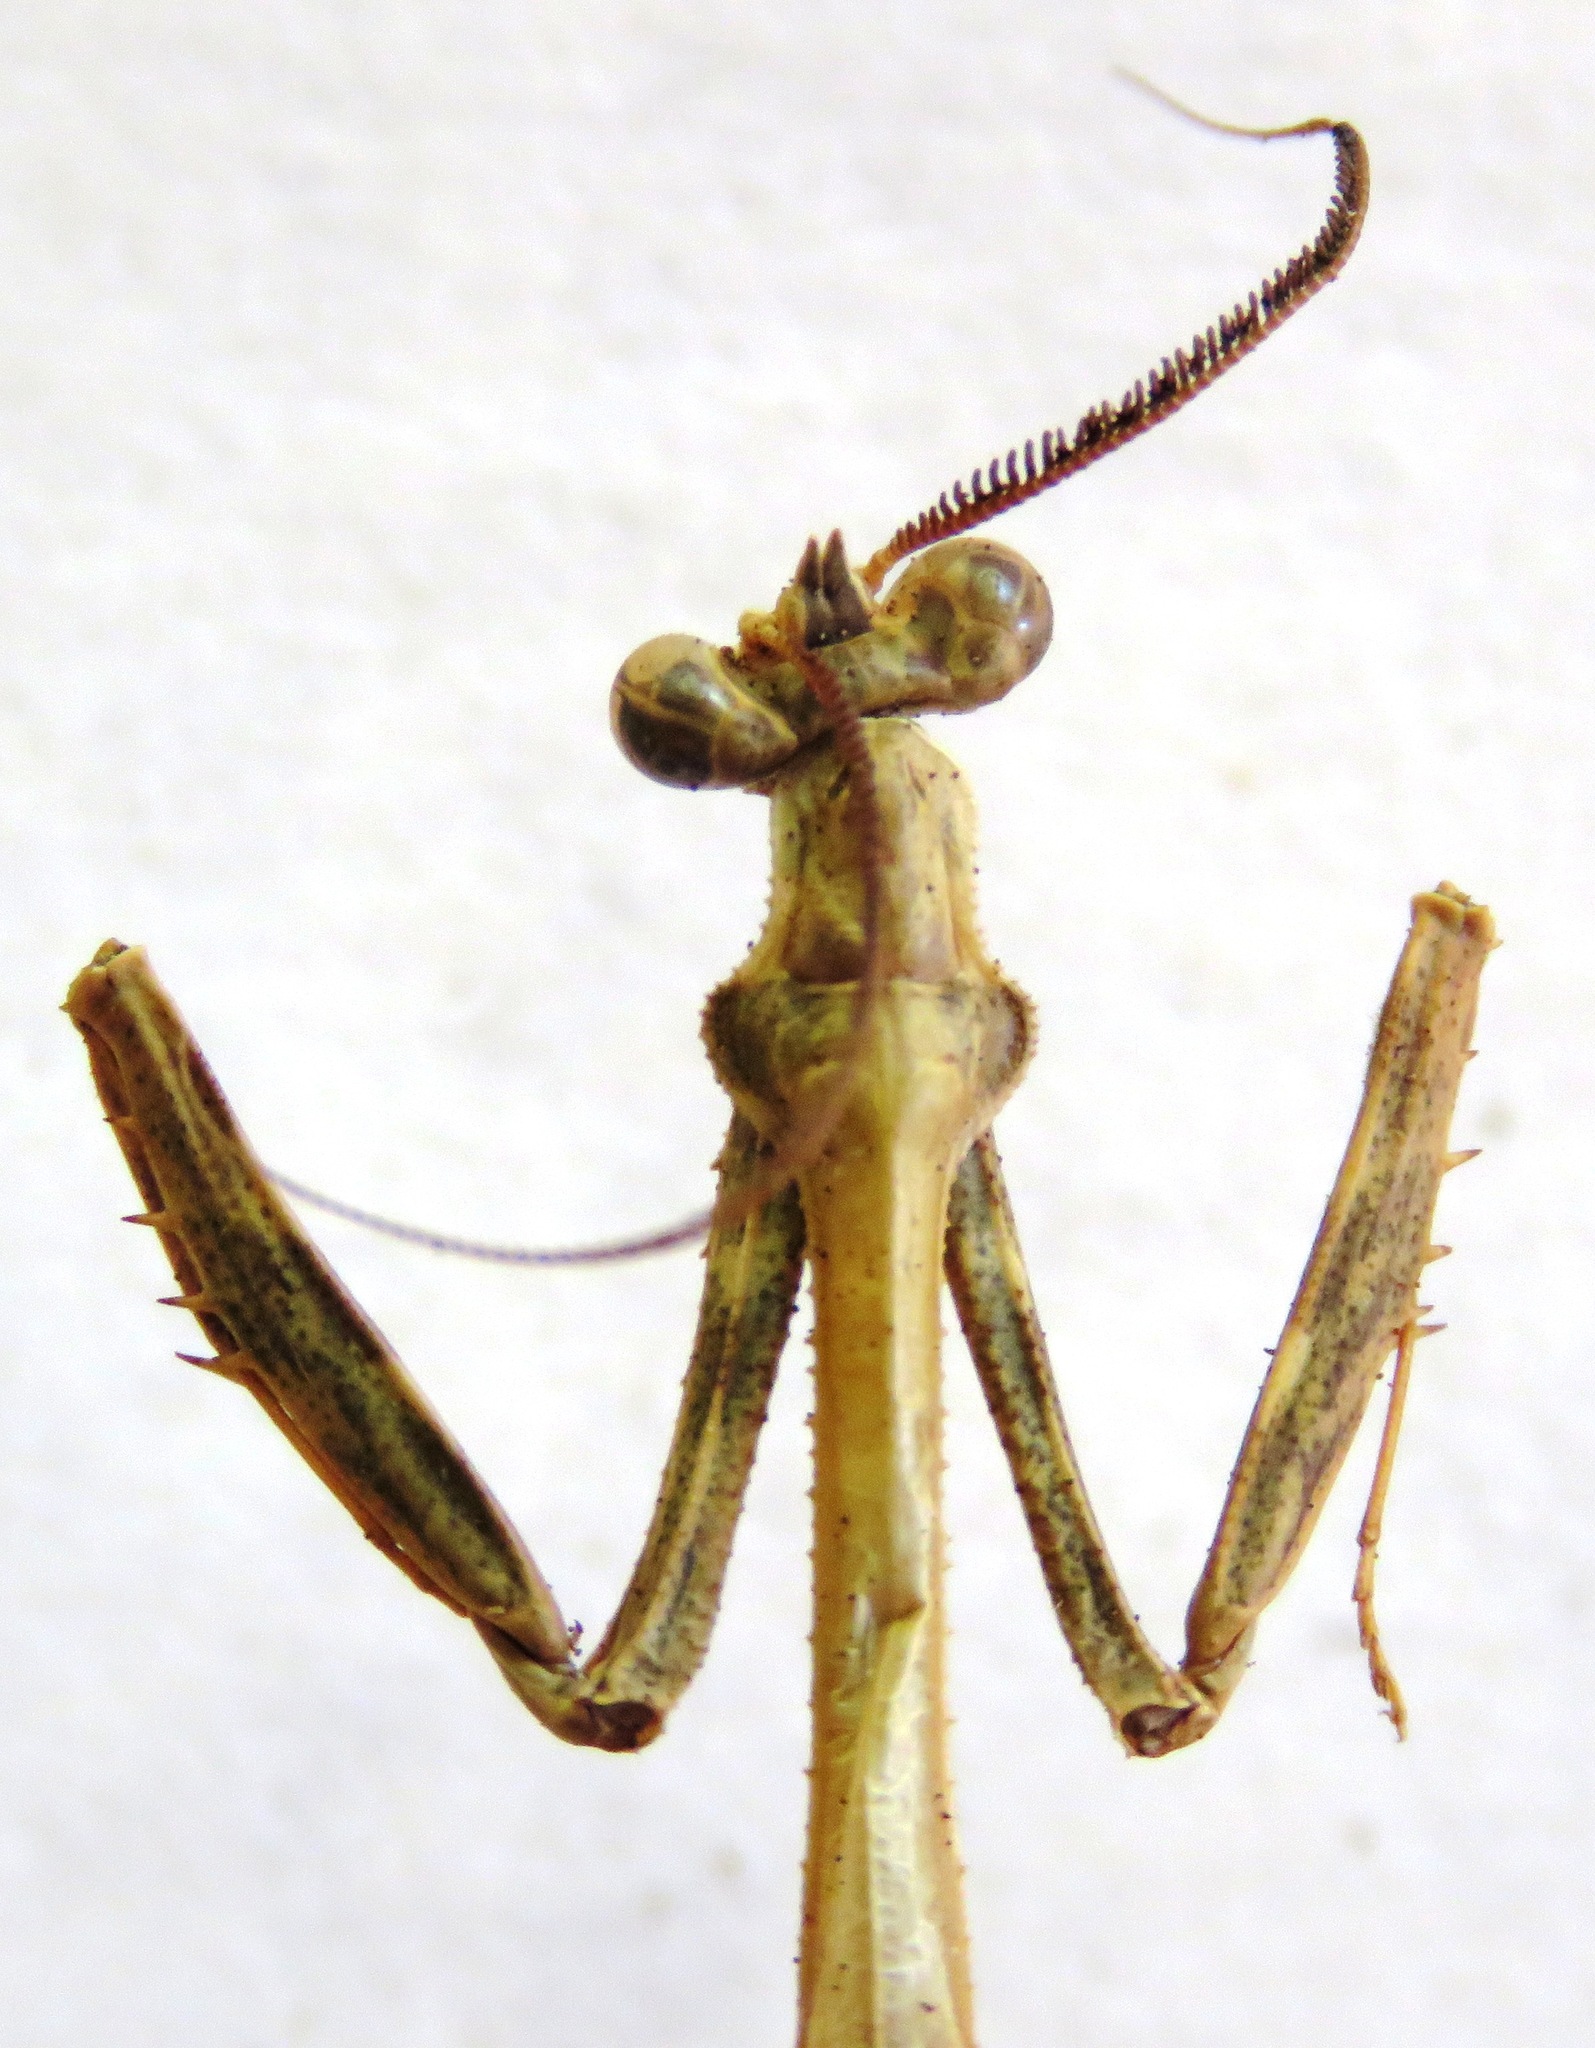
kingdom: Animalia
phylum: Arthropoda
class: Insecta
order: Mantodea
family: Mantidae
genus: Vates
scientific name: Vates pectinicornis
